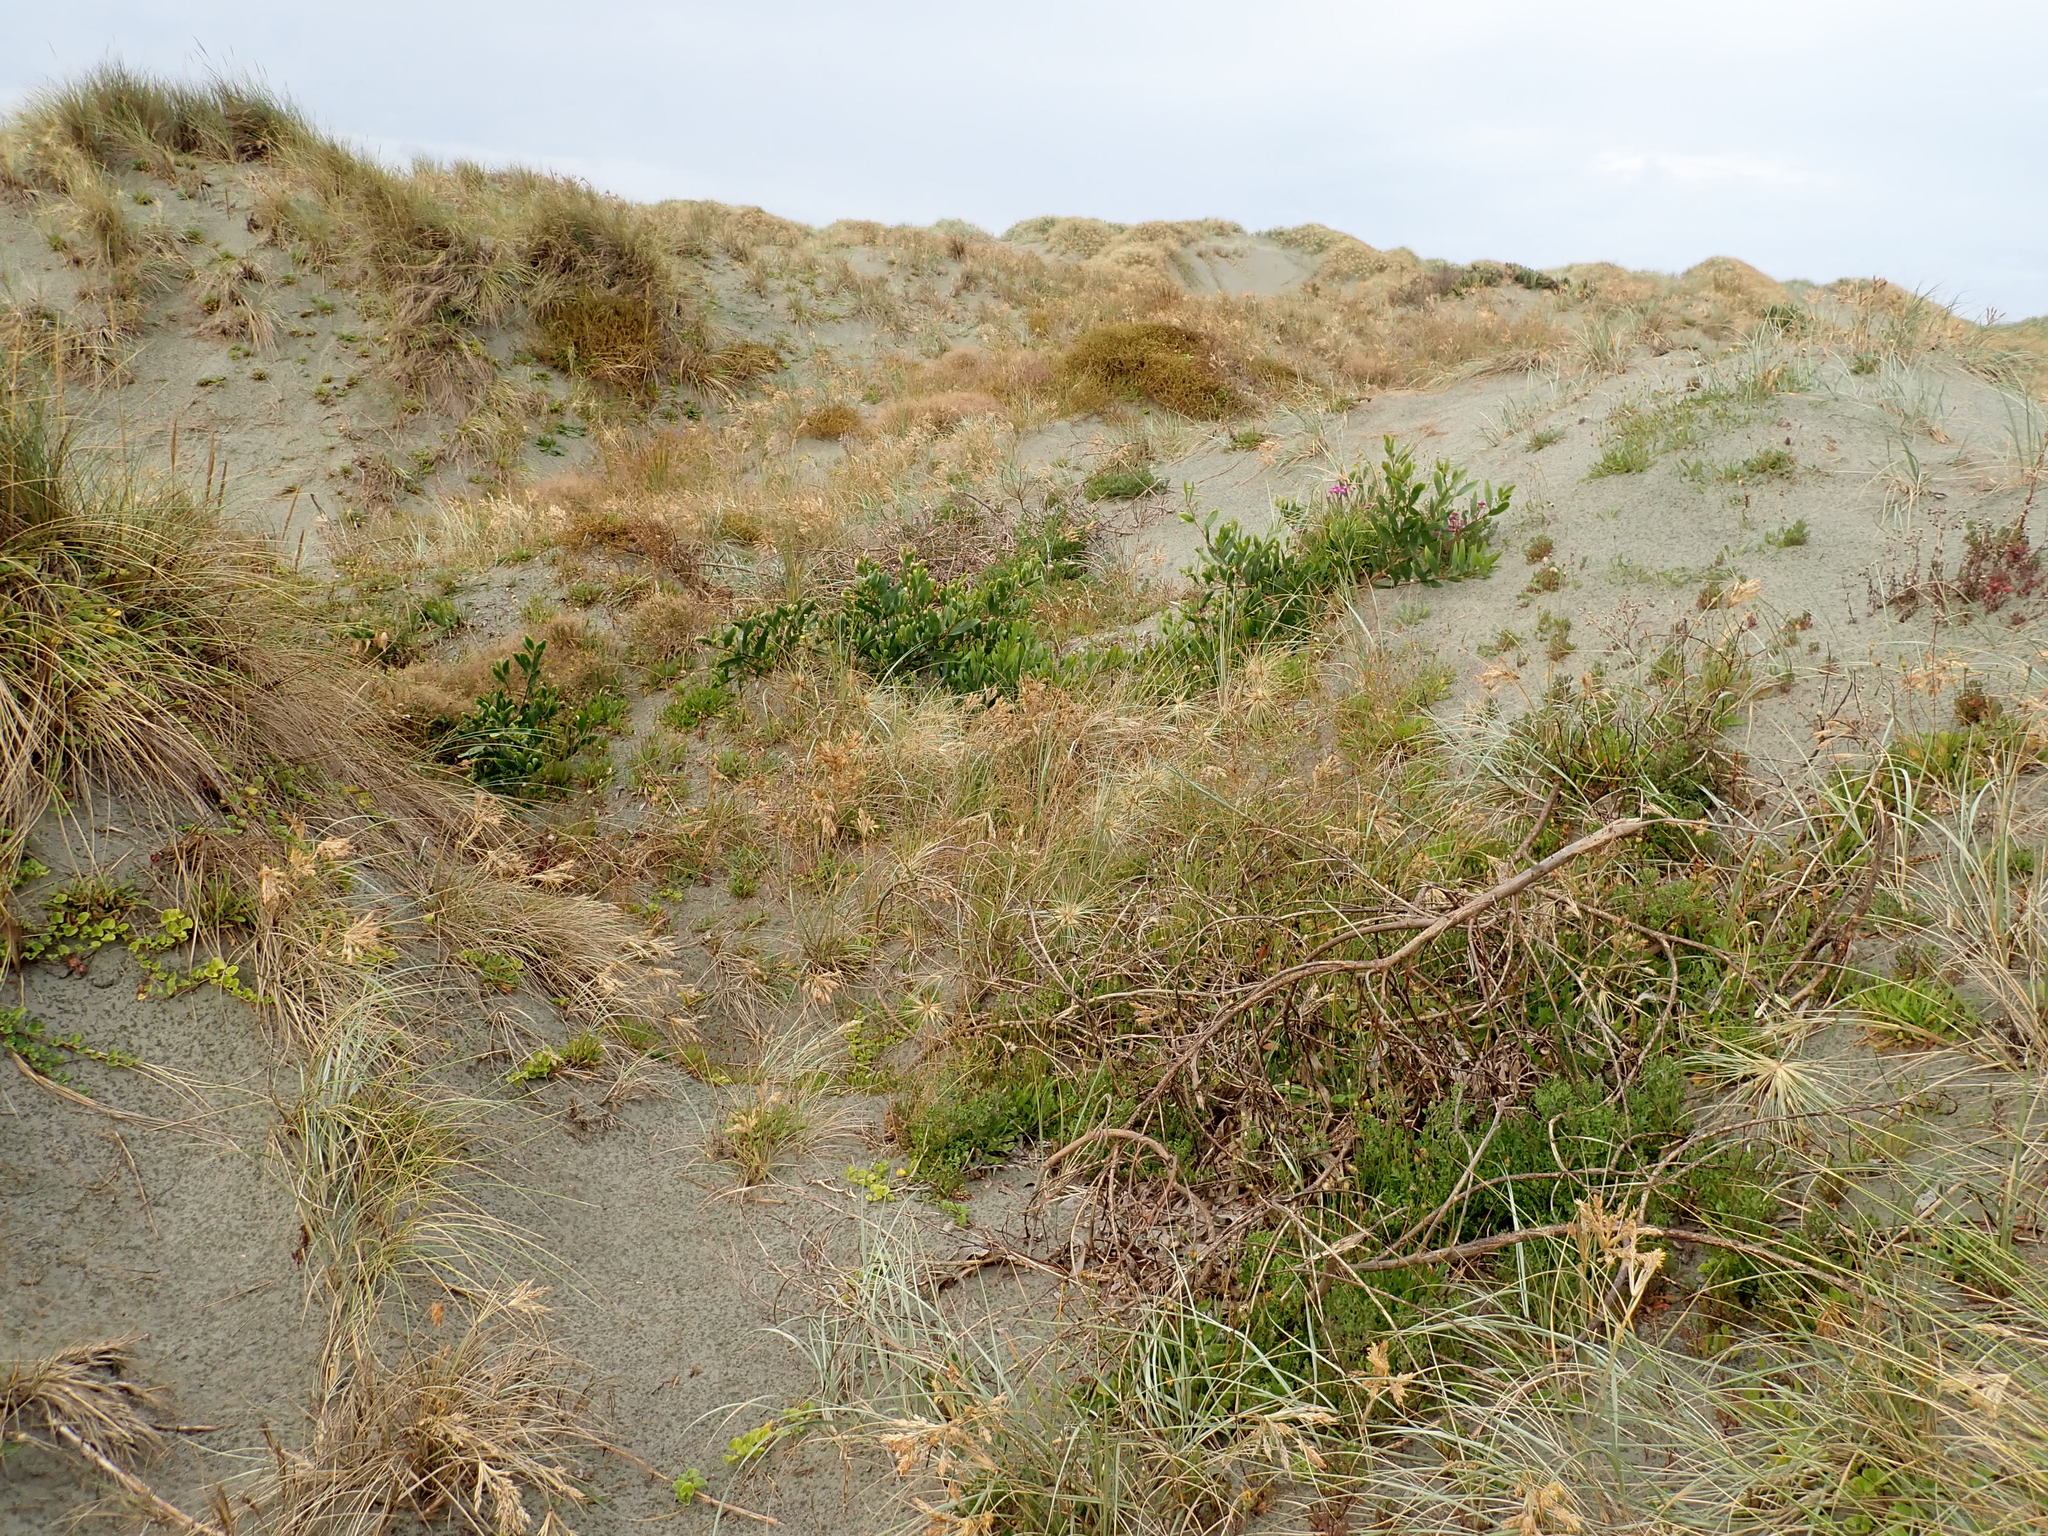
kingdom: Plantae
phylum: Tracheophyta
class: Magnoliopsida
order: Fabales
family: Fabaceae
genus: Acacia
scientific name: Acacia longifolia
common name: Sydney golden wattle
